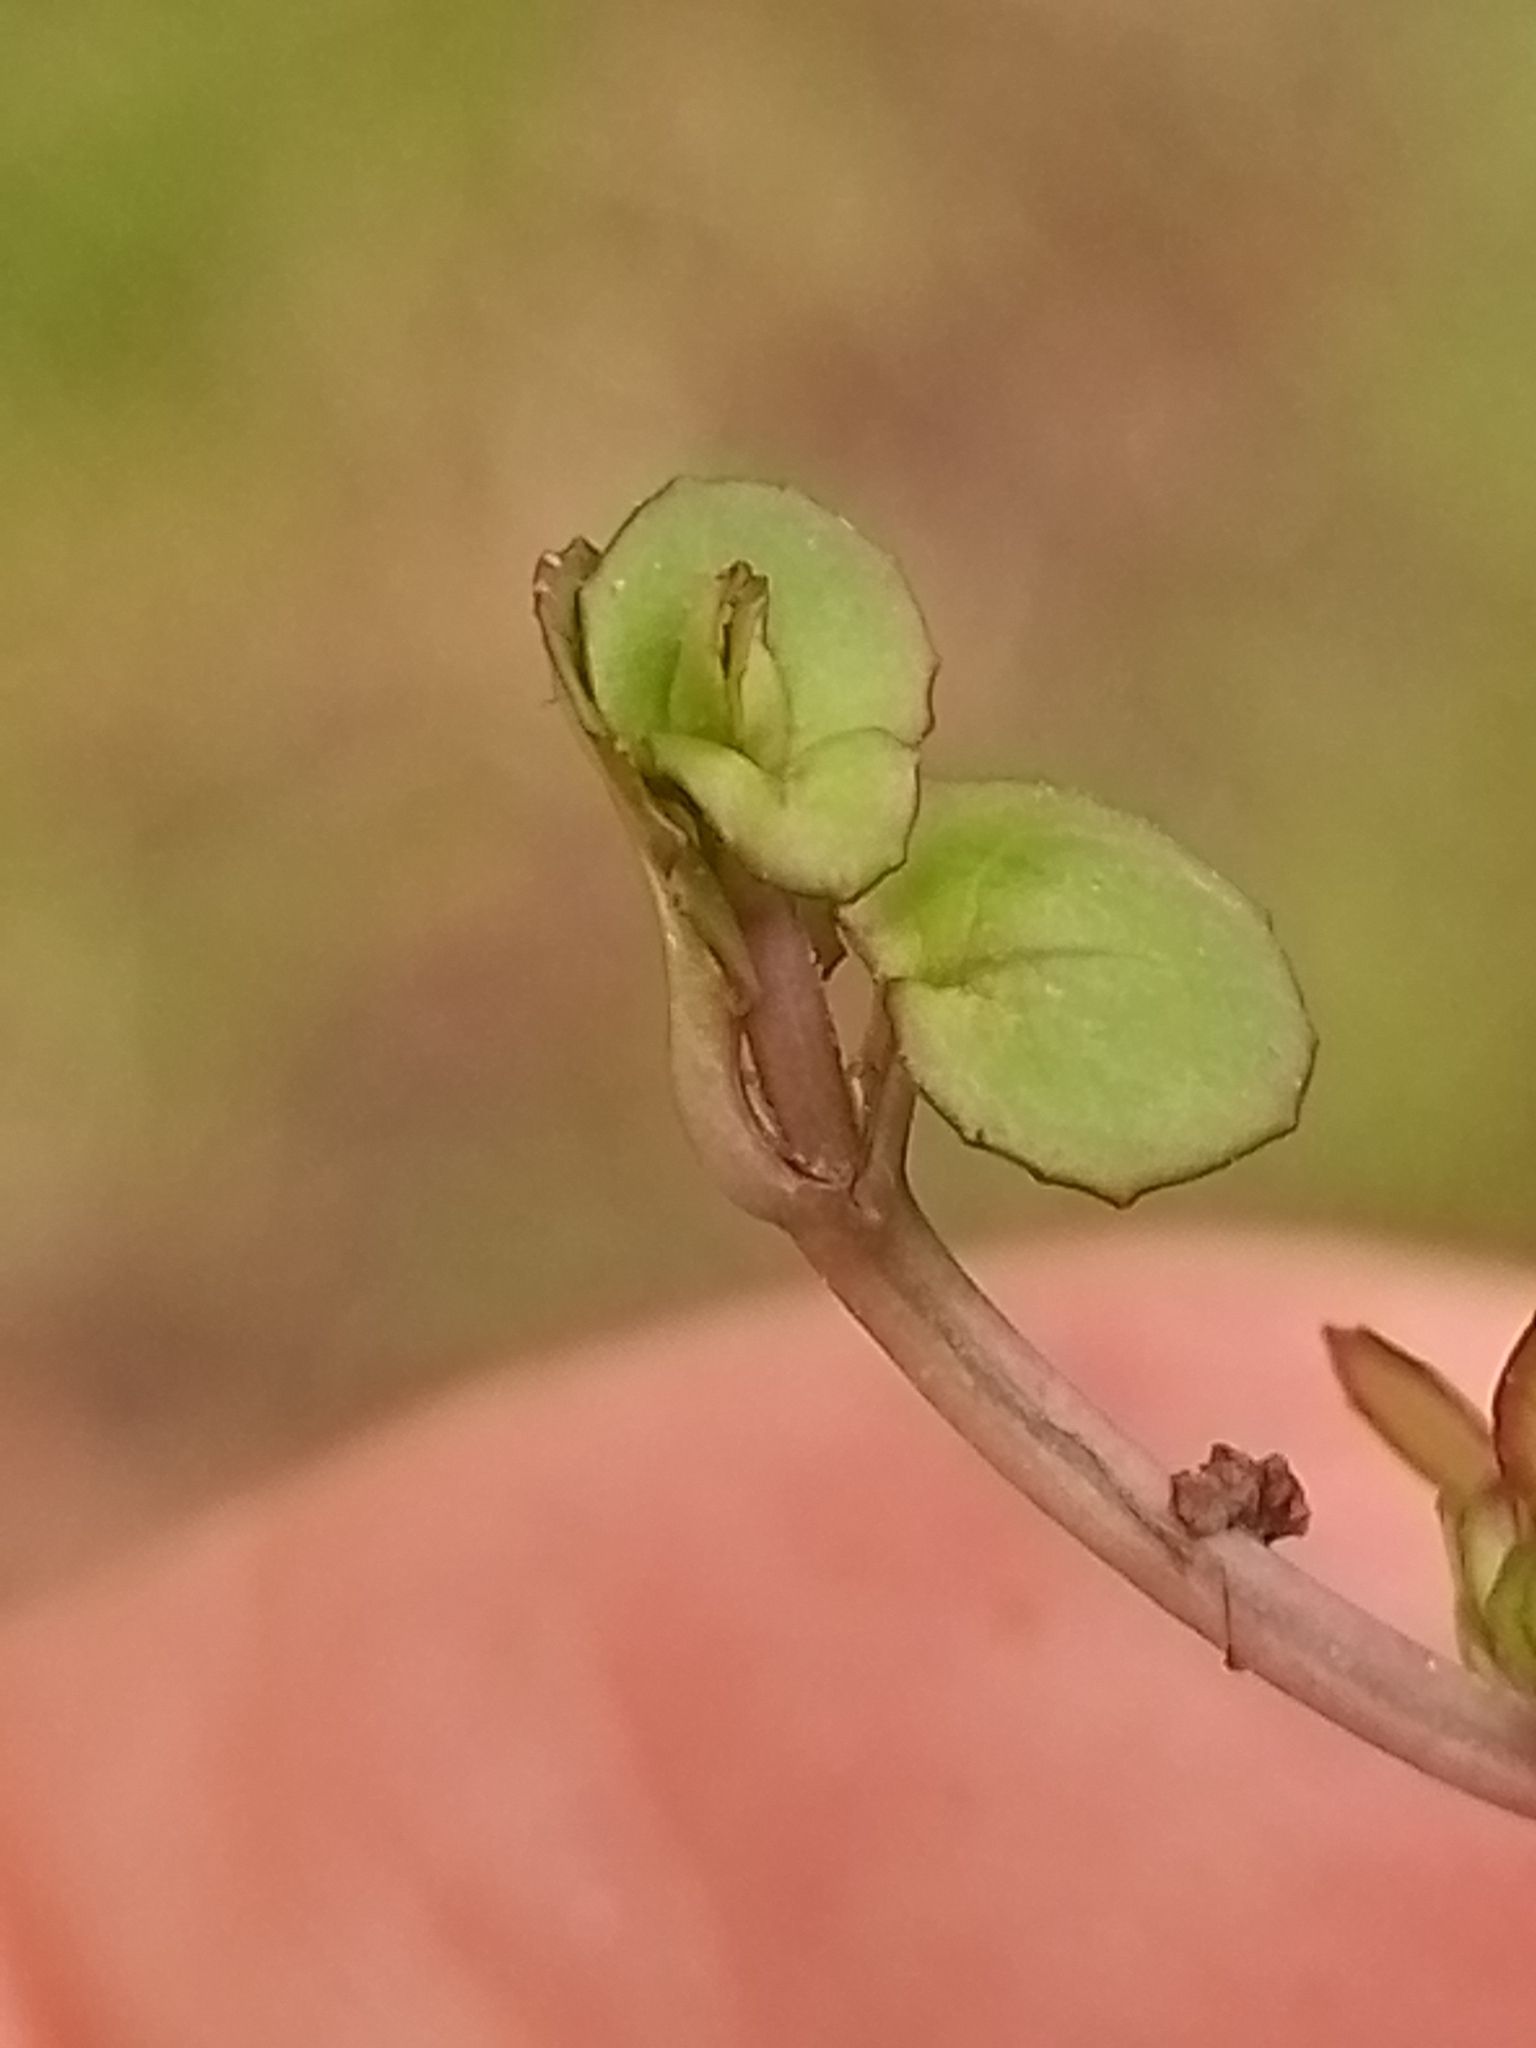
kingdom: Plantae
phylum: Tracheophyta
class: Magnoliopsida
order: Myrtales
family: Onagraceae
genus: Epilobium
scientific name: Epilobium nummularifolium
